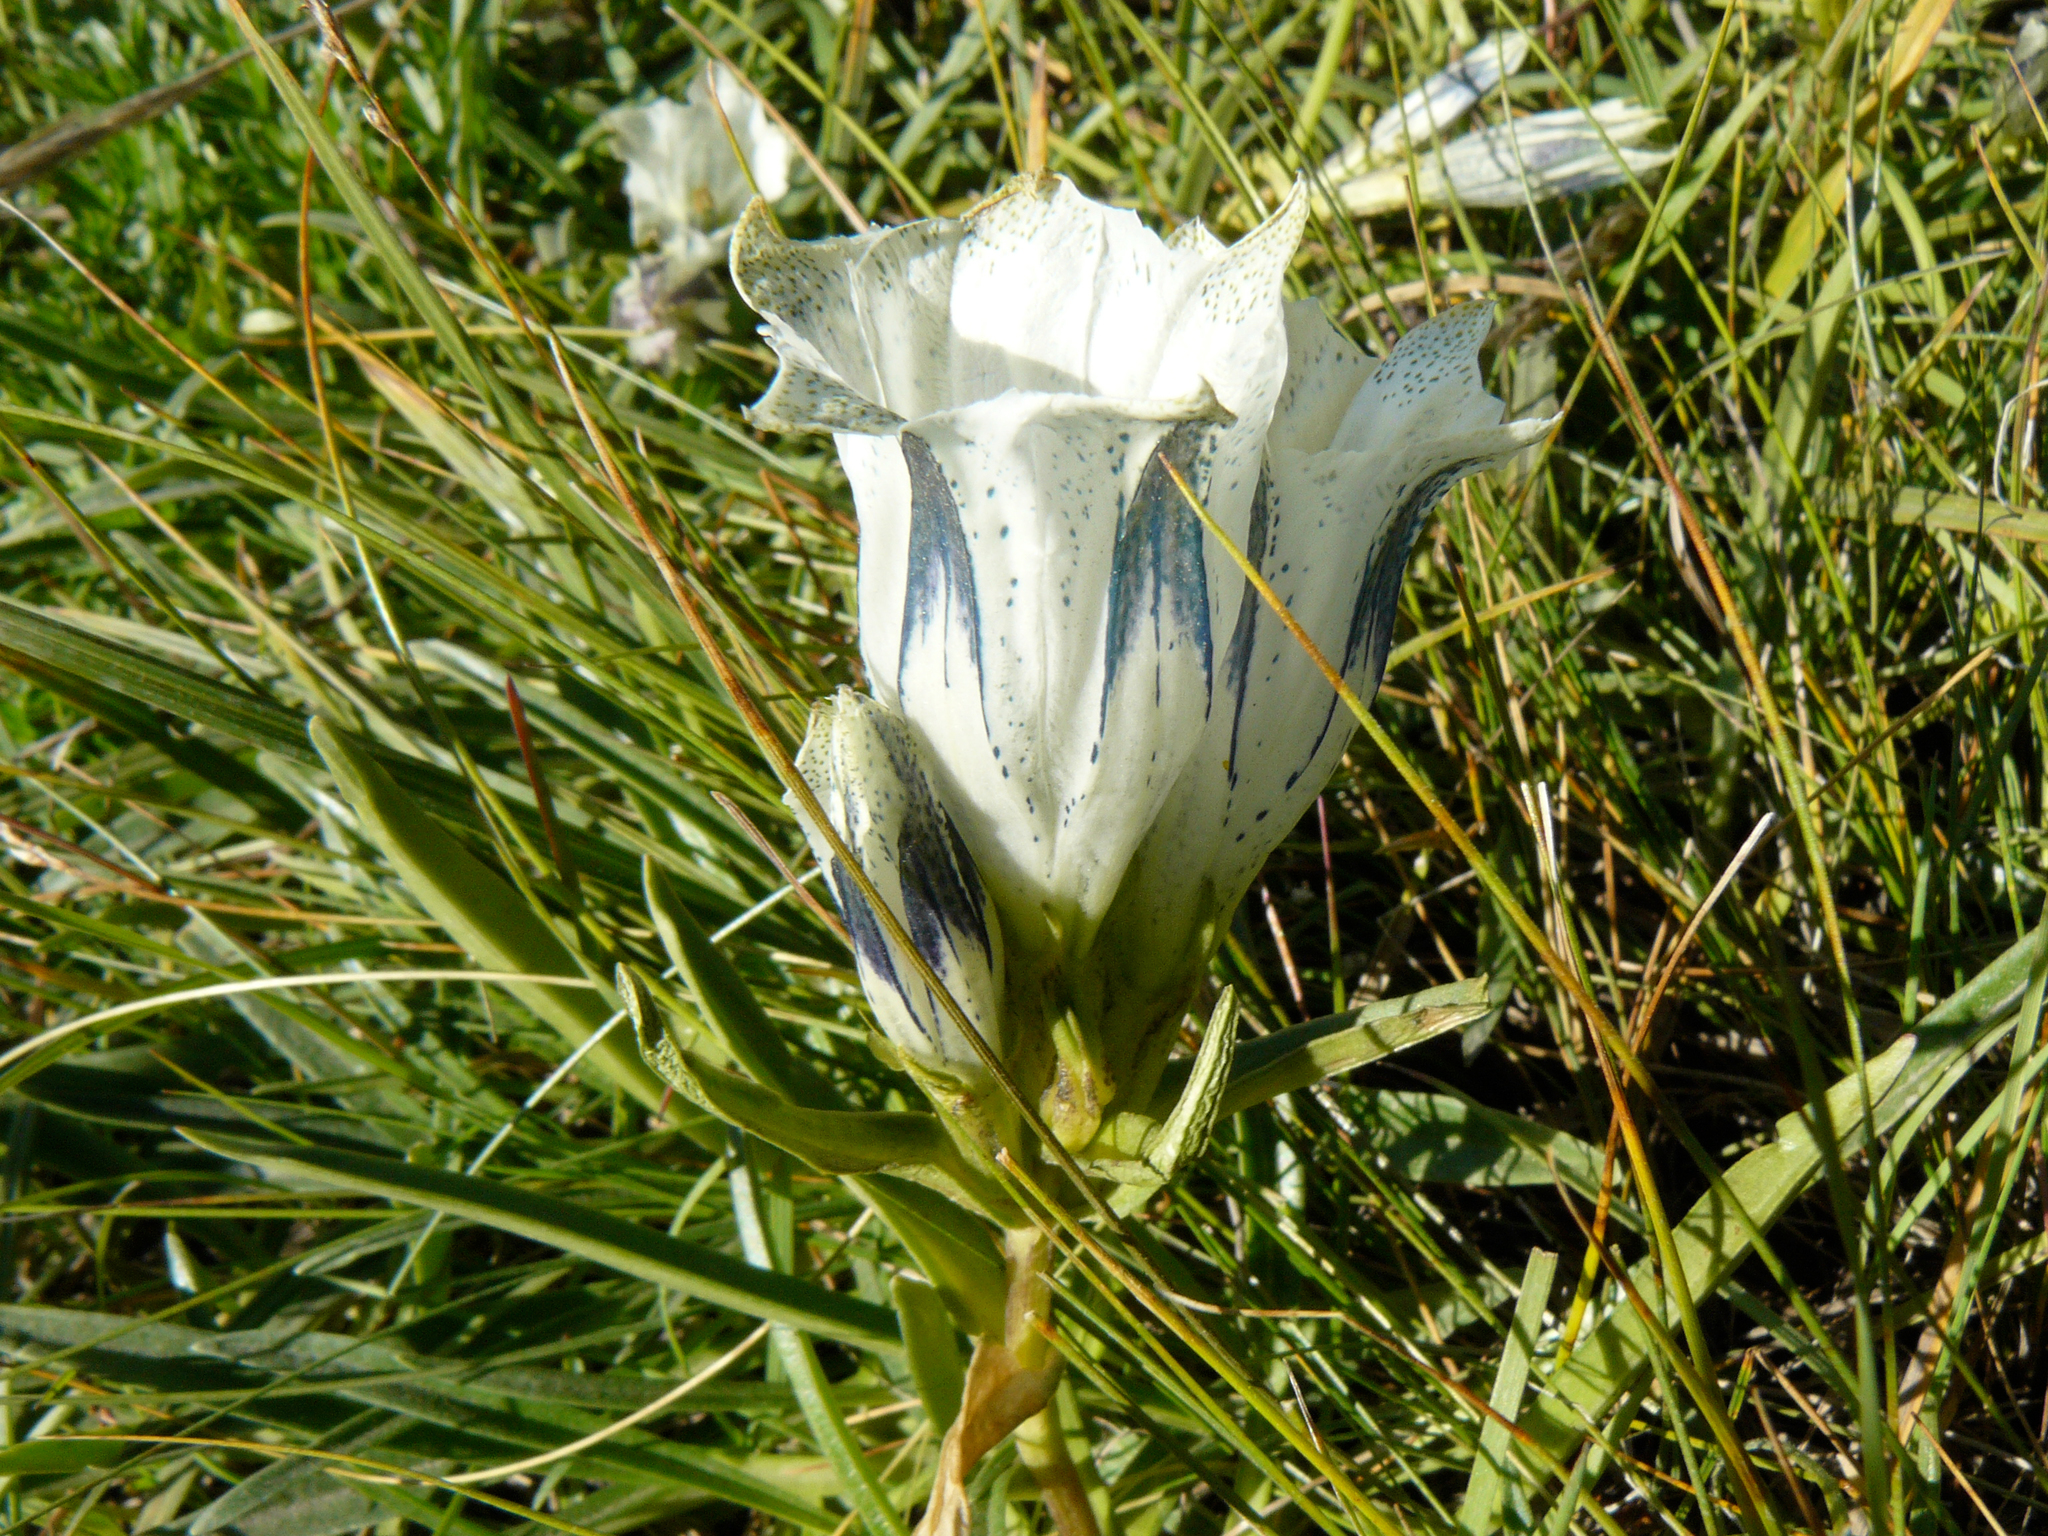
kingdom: Plantae
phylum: Tracheophyta
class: Magnoliopsida
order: Gentianales
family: Gentianaceae
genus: Gentiana
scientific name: Gentiana algida
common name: Arctic gentian
